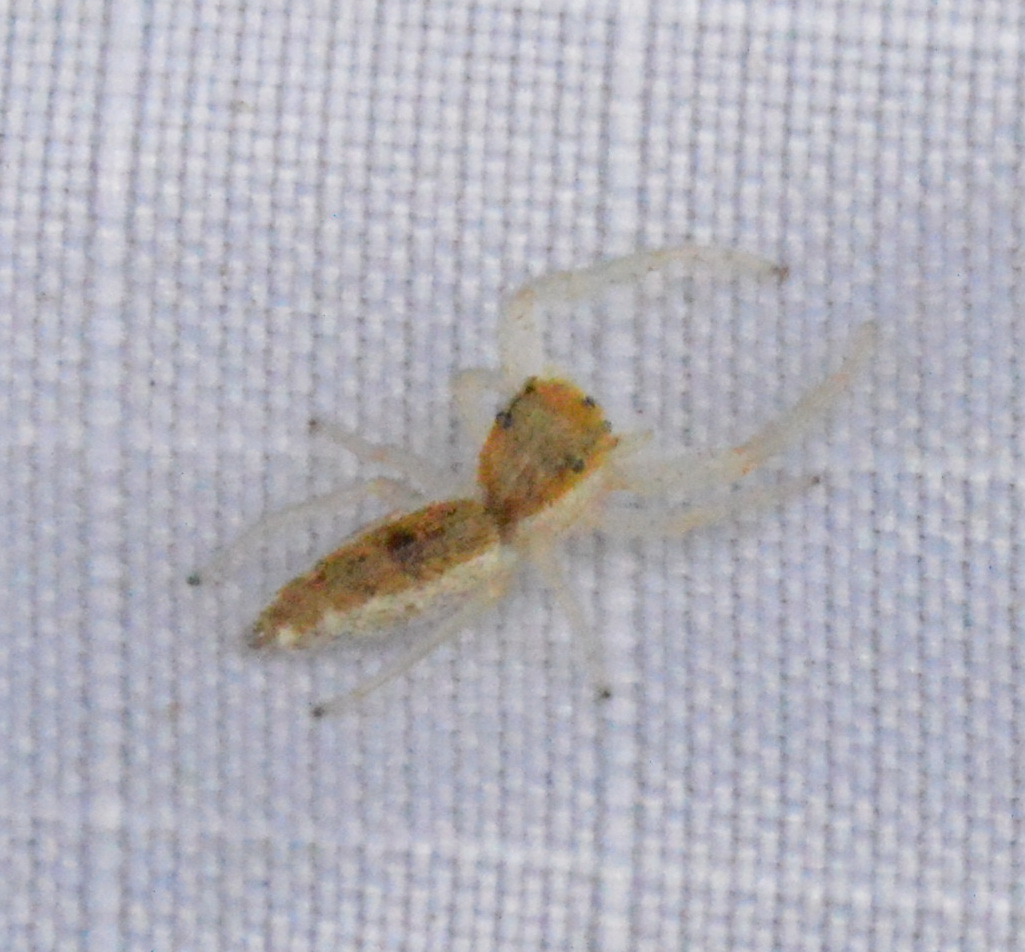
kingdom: Animalia
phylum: Arthropoda
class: Arachnida
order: Araneae
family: Salticidae
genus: Hentzia
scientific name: Hentzia mitrata
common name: White-jawed jumping spider
